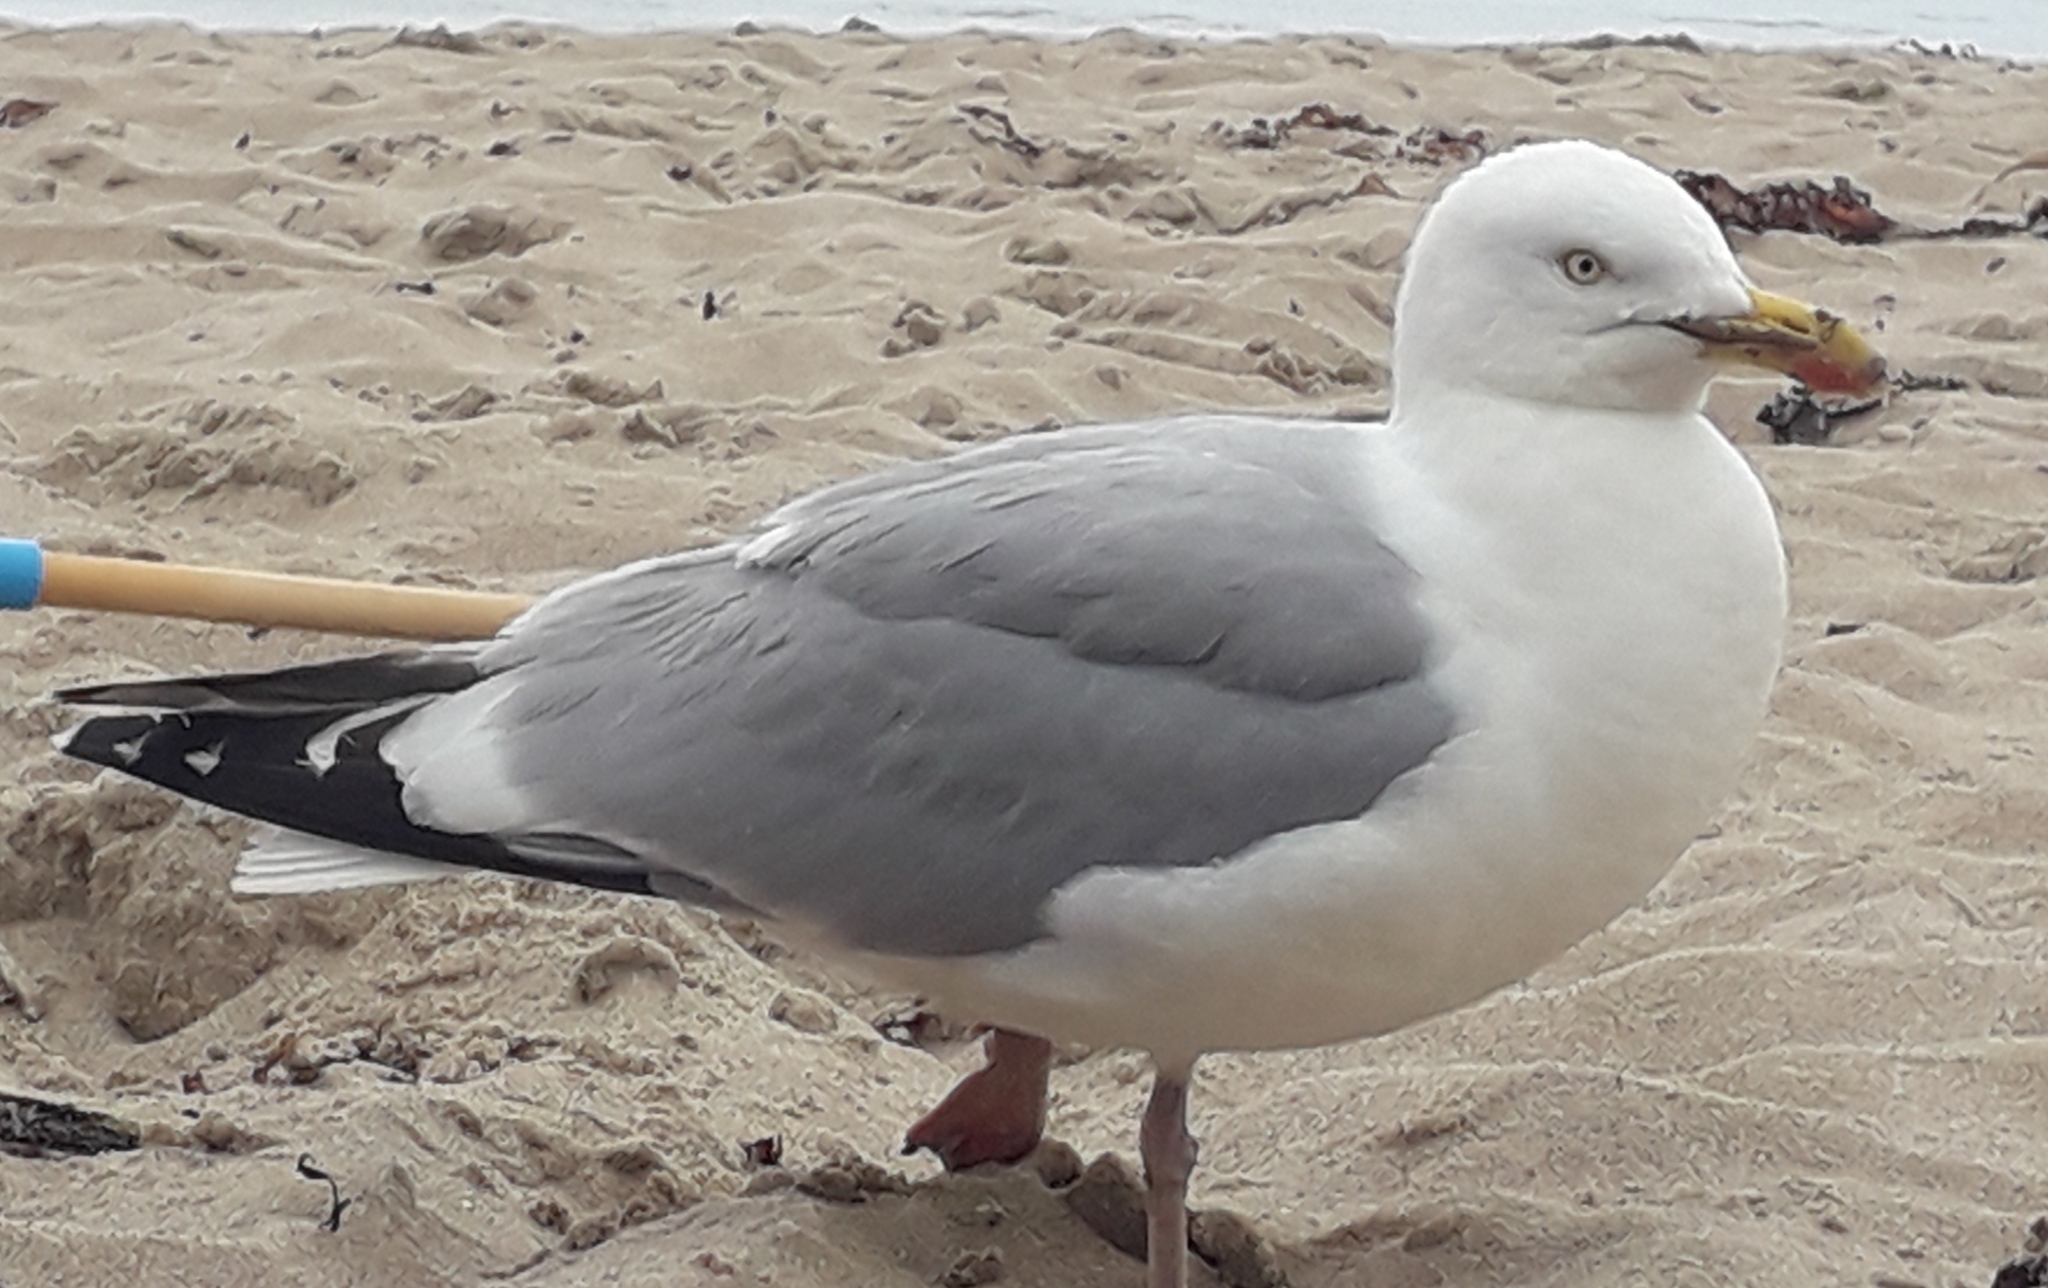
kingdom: Animalia
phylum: Chordata
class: Aves
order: Charadriiformes
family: Laridae
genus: Larus
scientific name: Larus argentatus
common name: Herring gull
